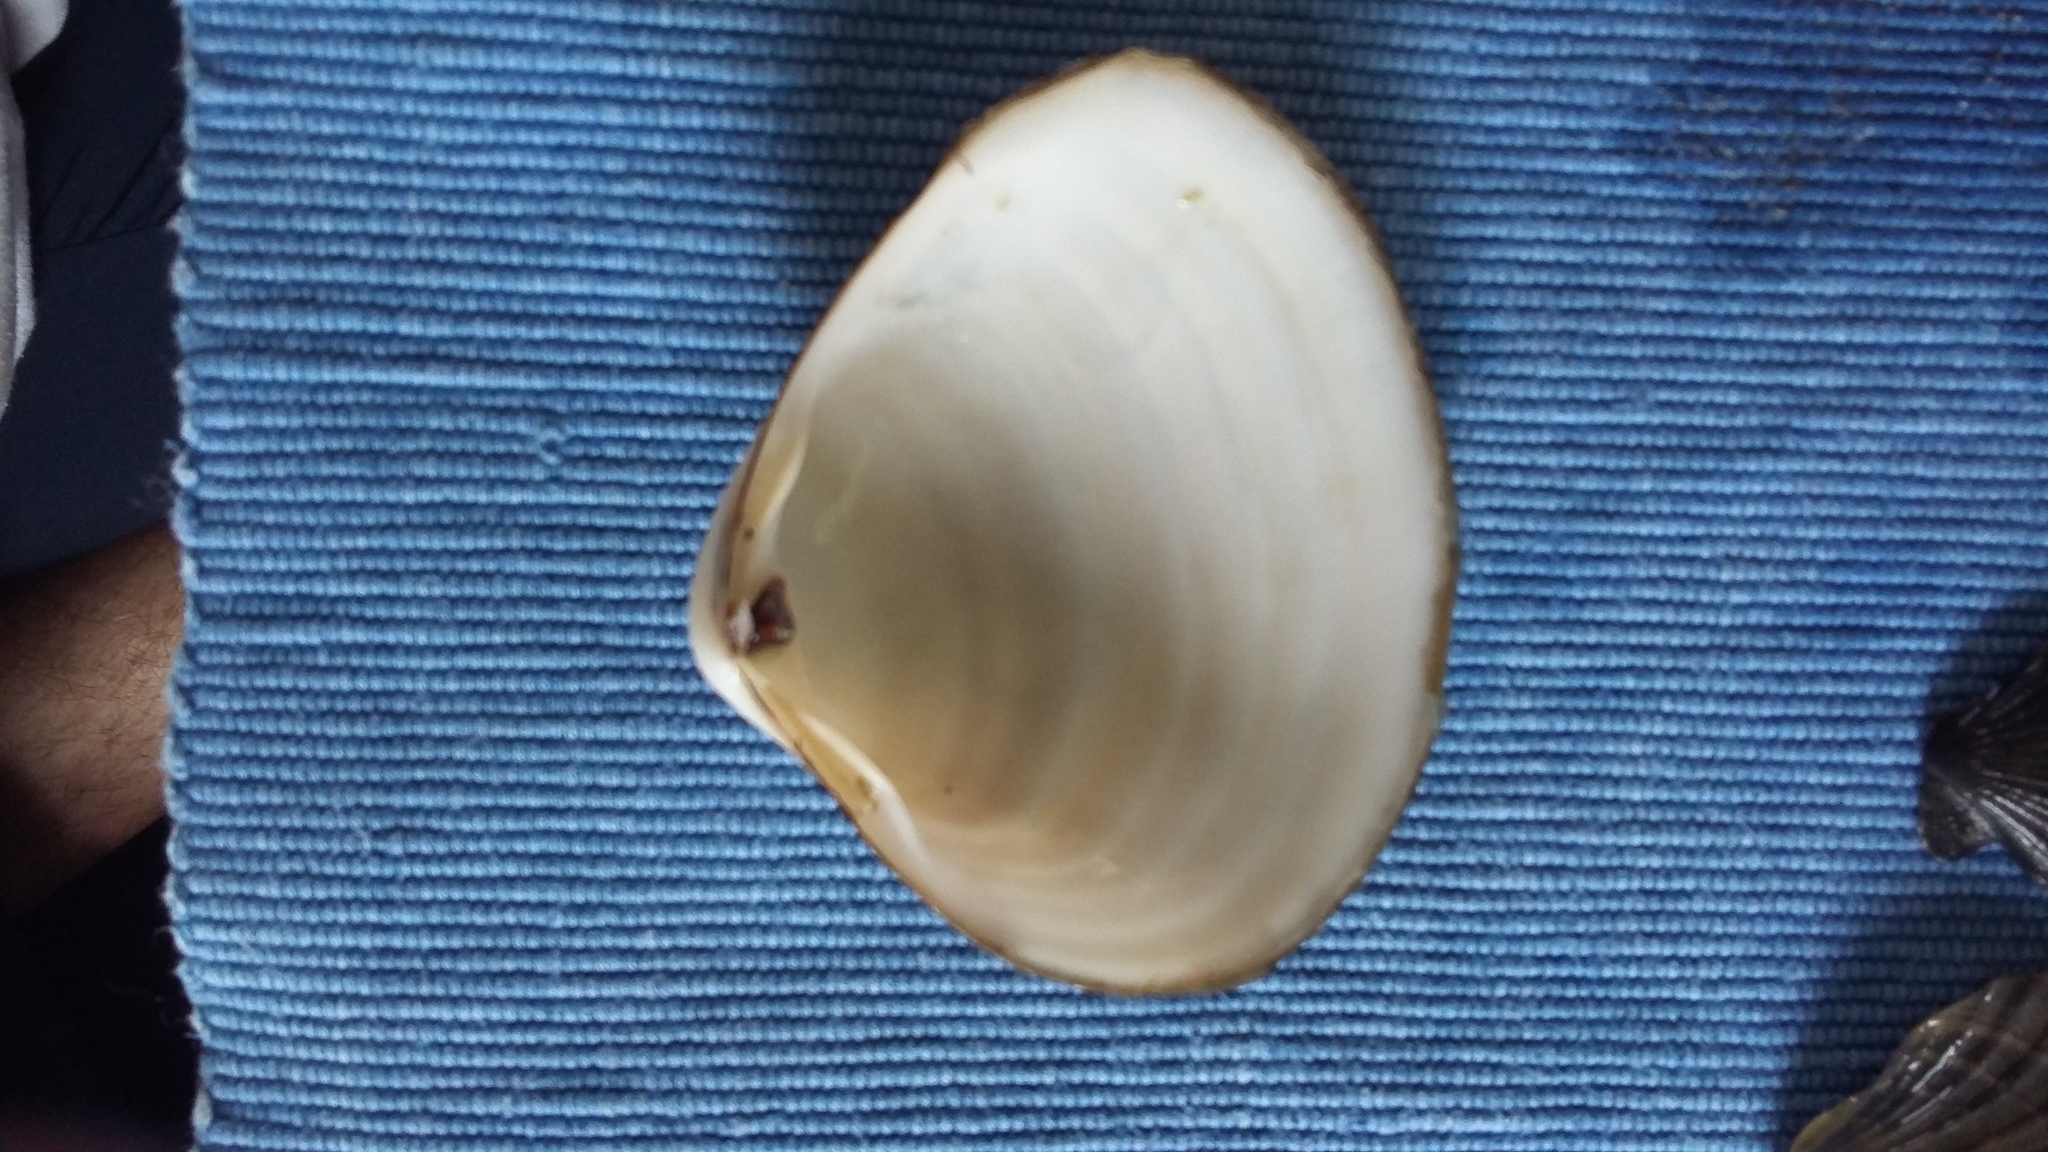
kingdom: Animalia
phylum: Mollusca
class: Bivalvia
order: Venerida
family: Mactridae
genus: Spisula
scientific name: Spisula murchisoni
